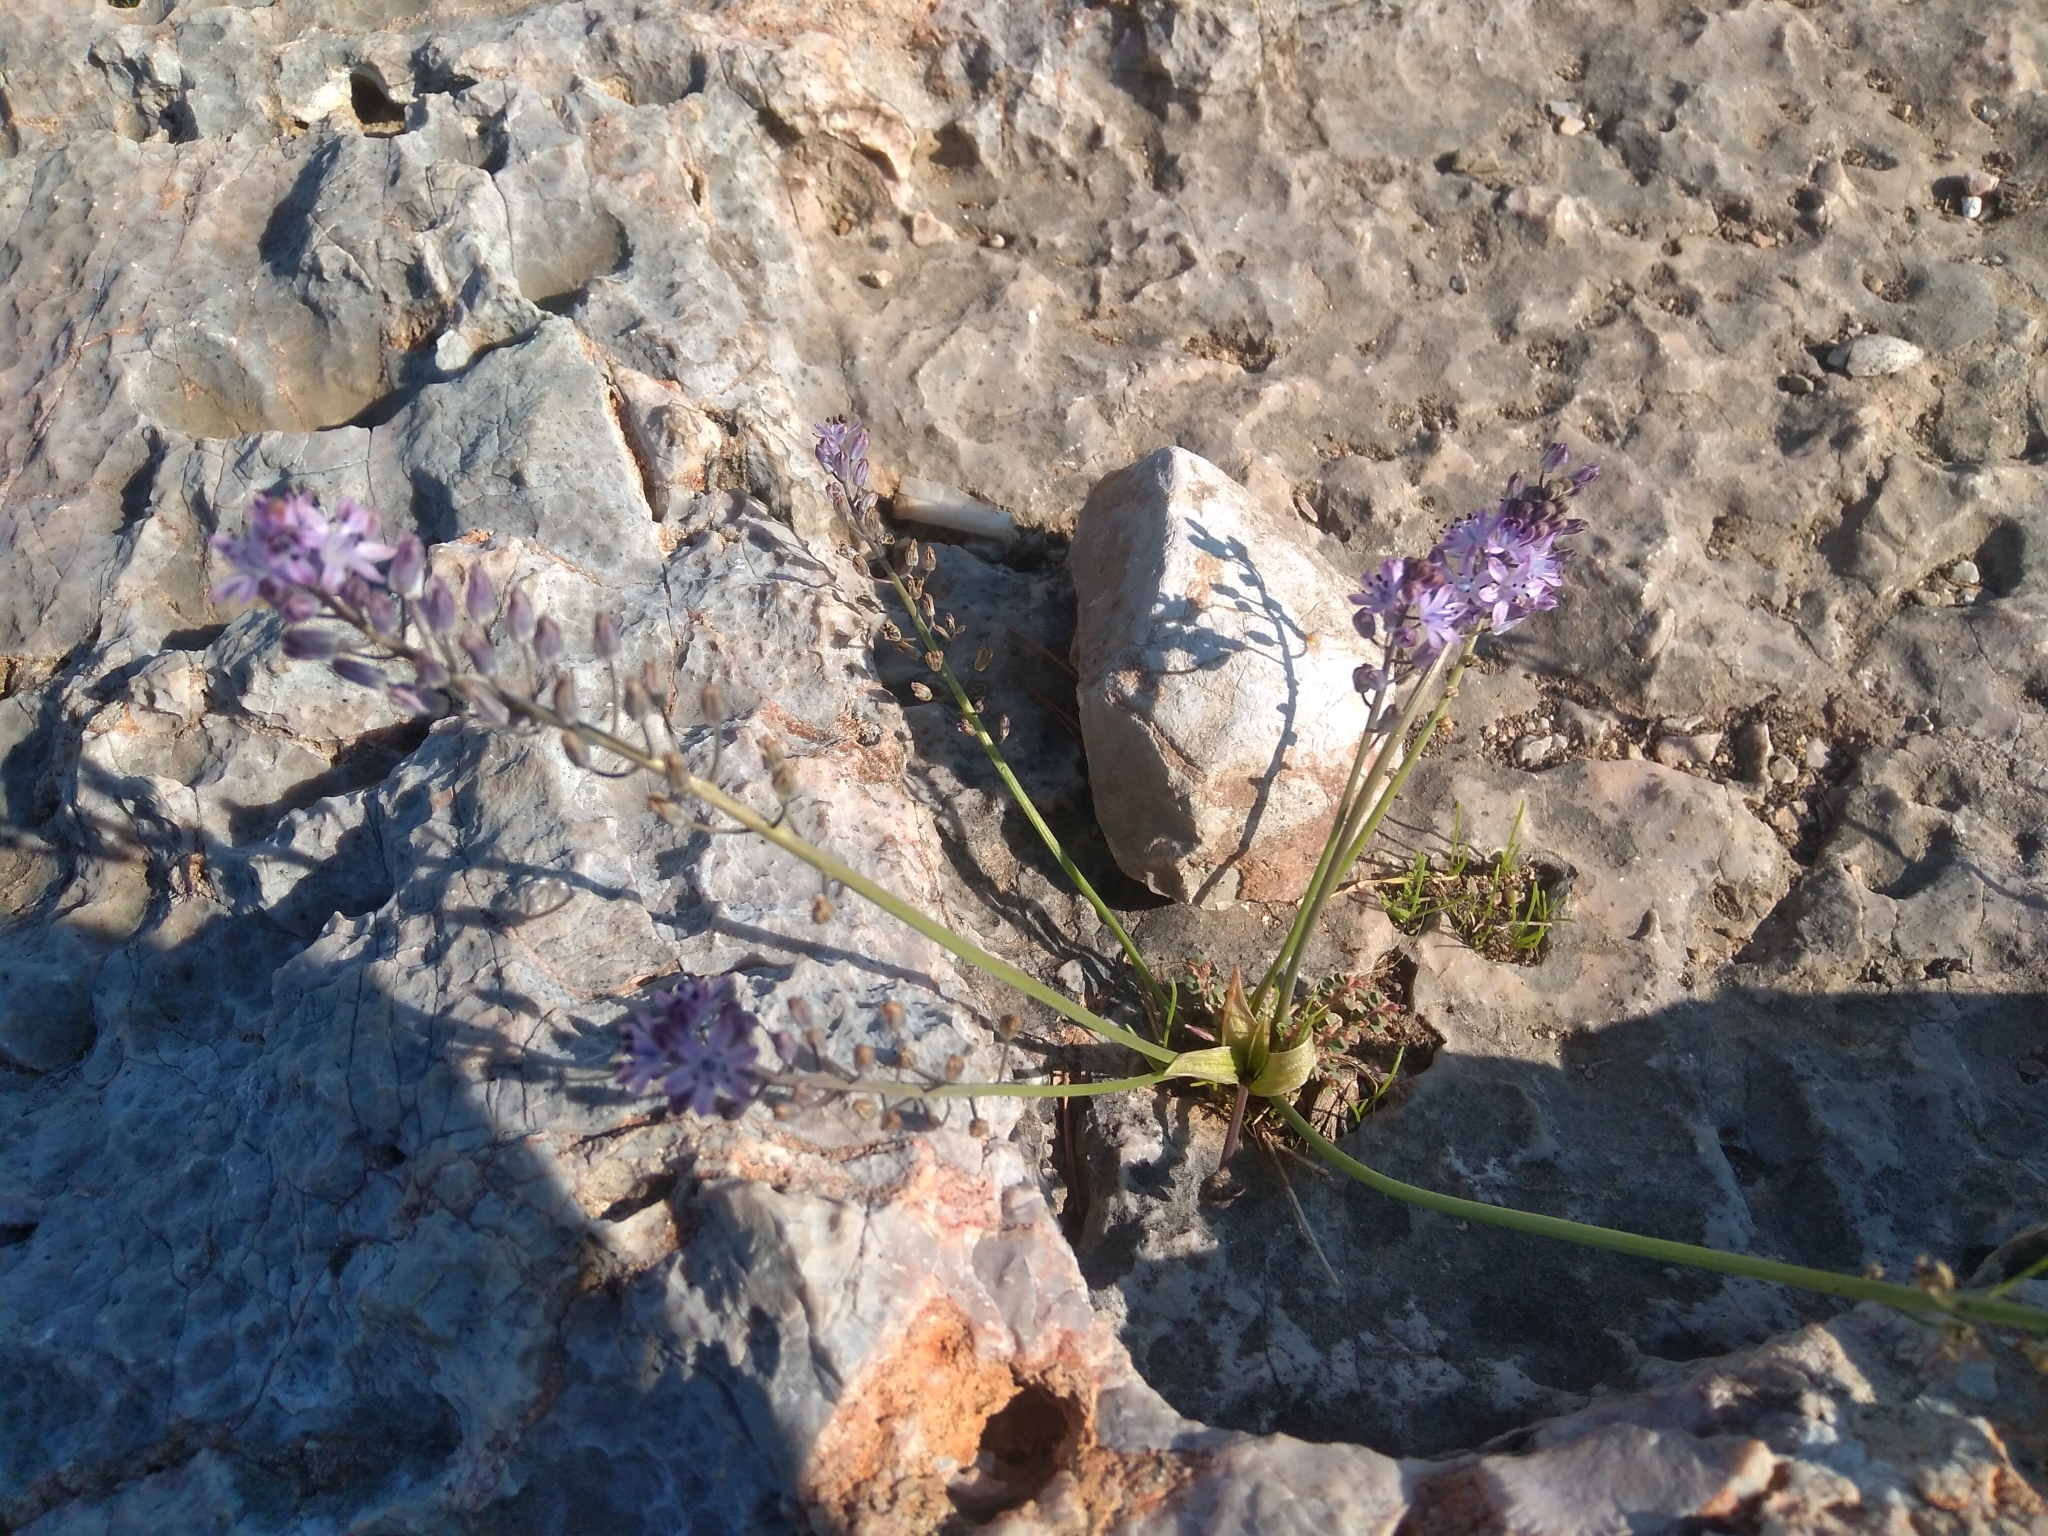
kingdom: Plantae
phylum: Tracheophyta
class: Liliopsida
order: Asparagales
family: Asparagaceae
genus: Prospero
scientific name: Prospero autumnale
